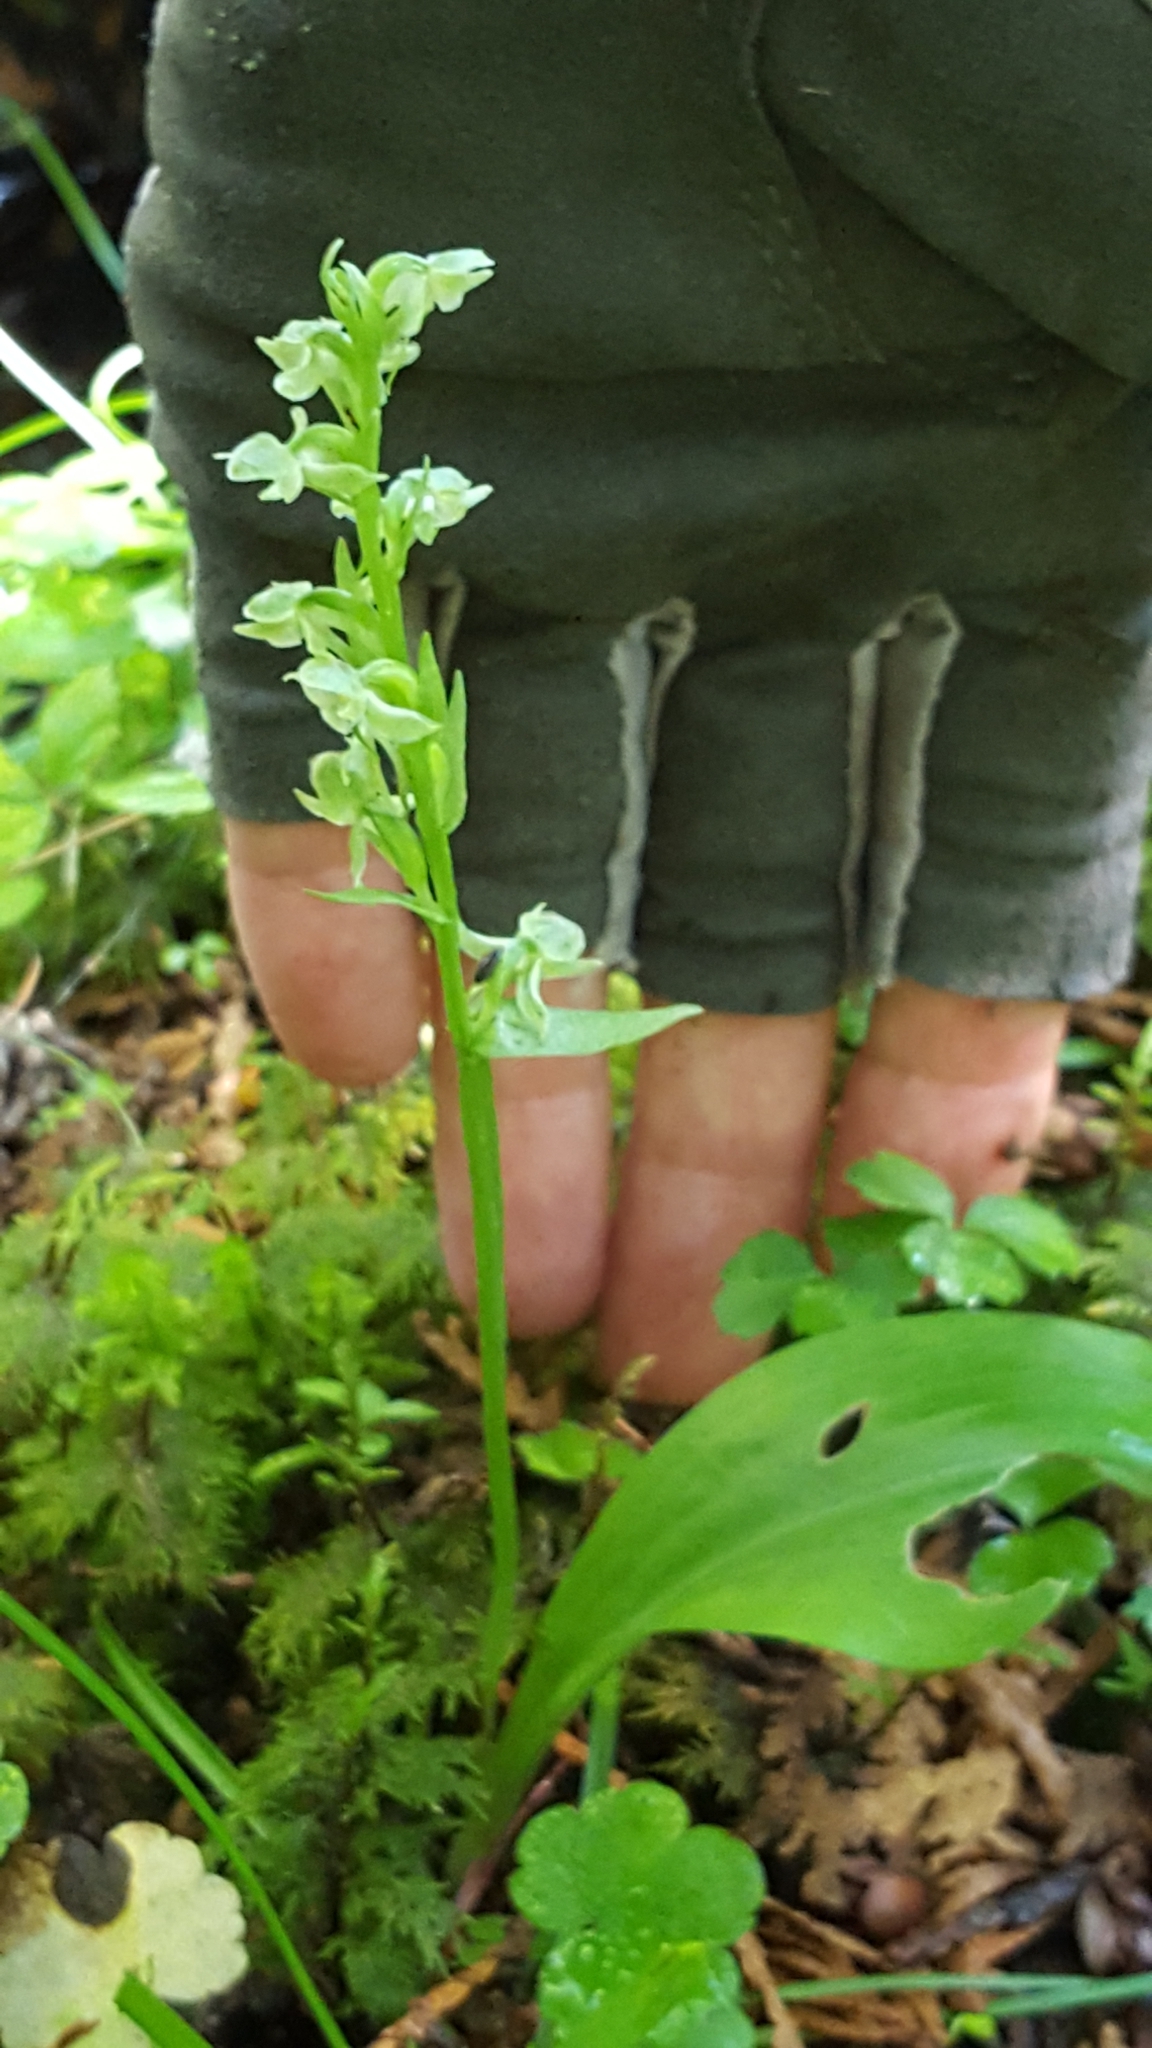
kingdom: Plantae
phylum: Tracheophyta
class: Liliopsida
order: Asparagales
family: Orchidaceae
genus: Platanthera
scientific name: Platanthera obtusata
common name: Blunt bog orchid
